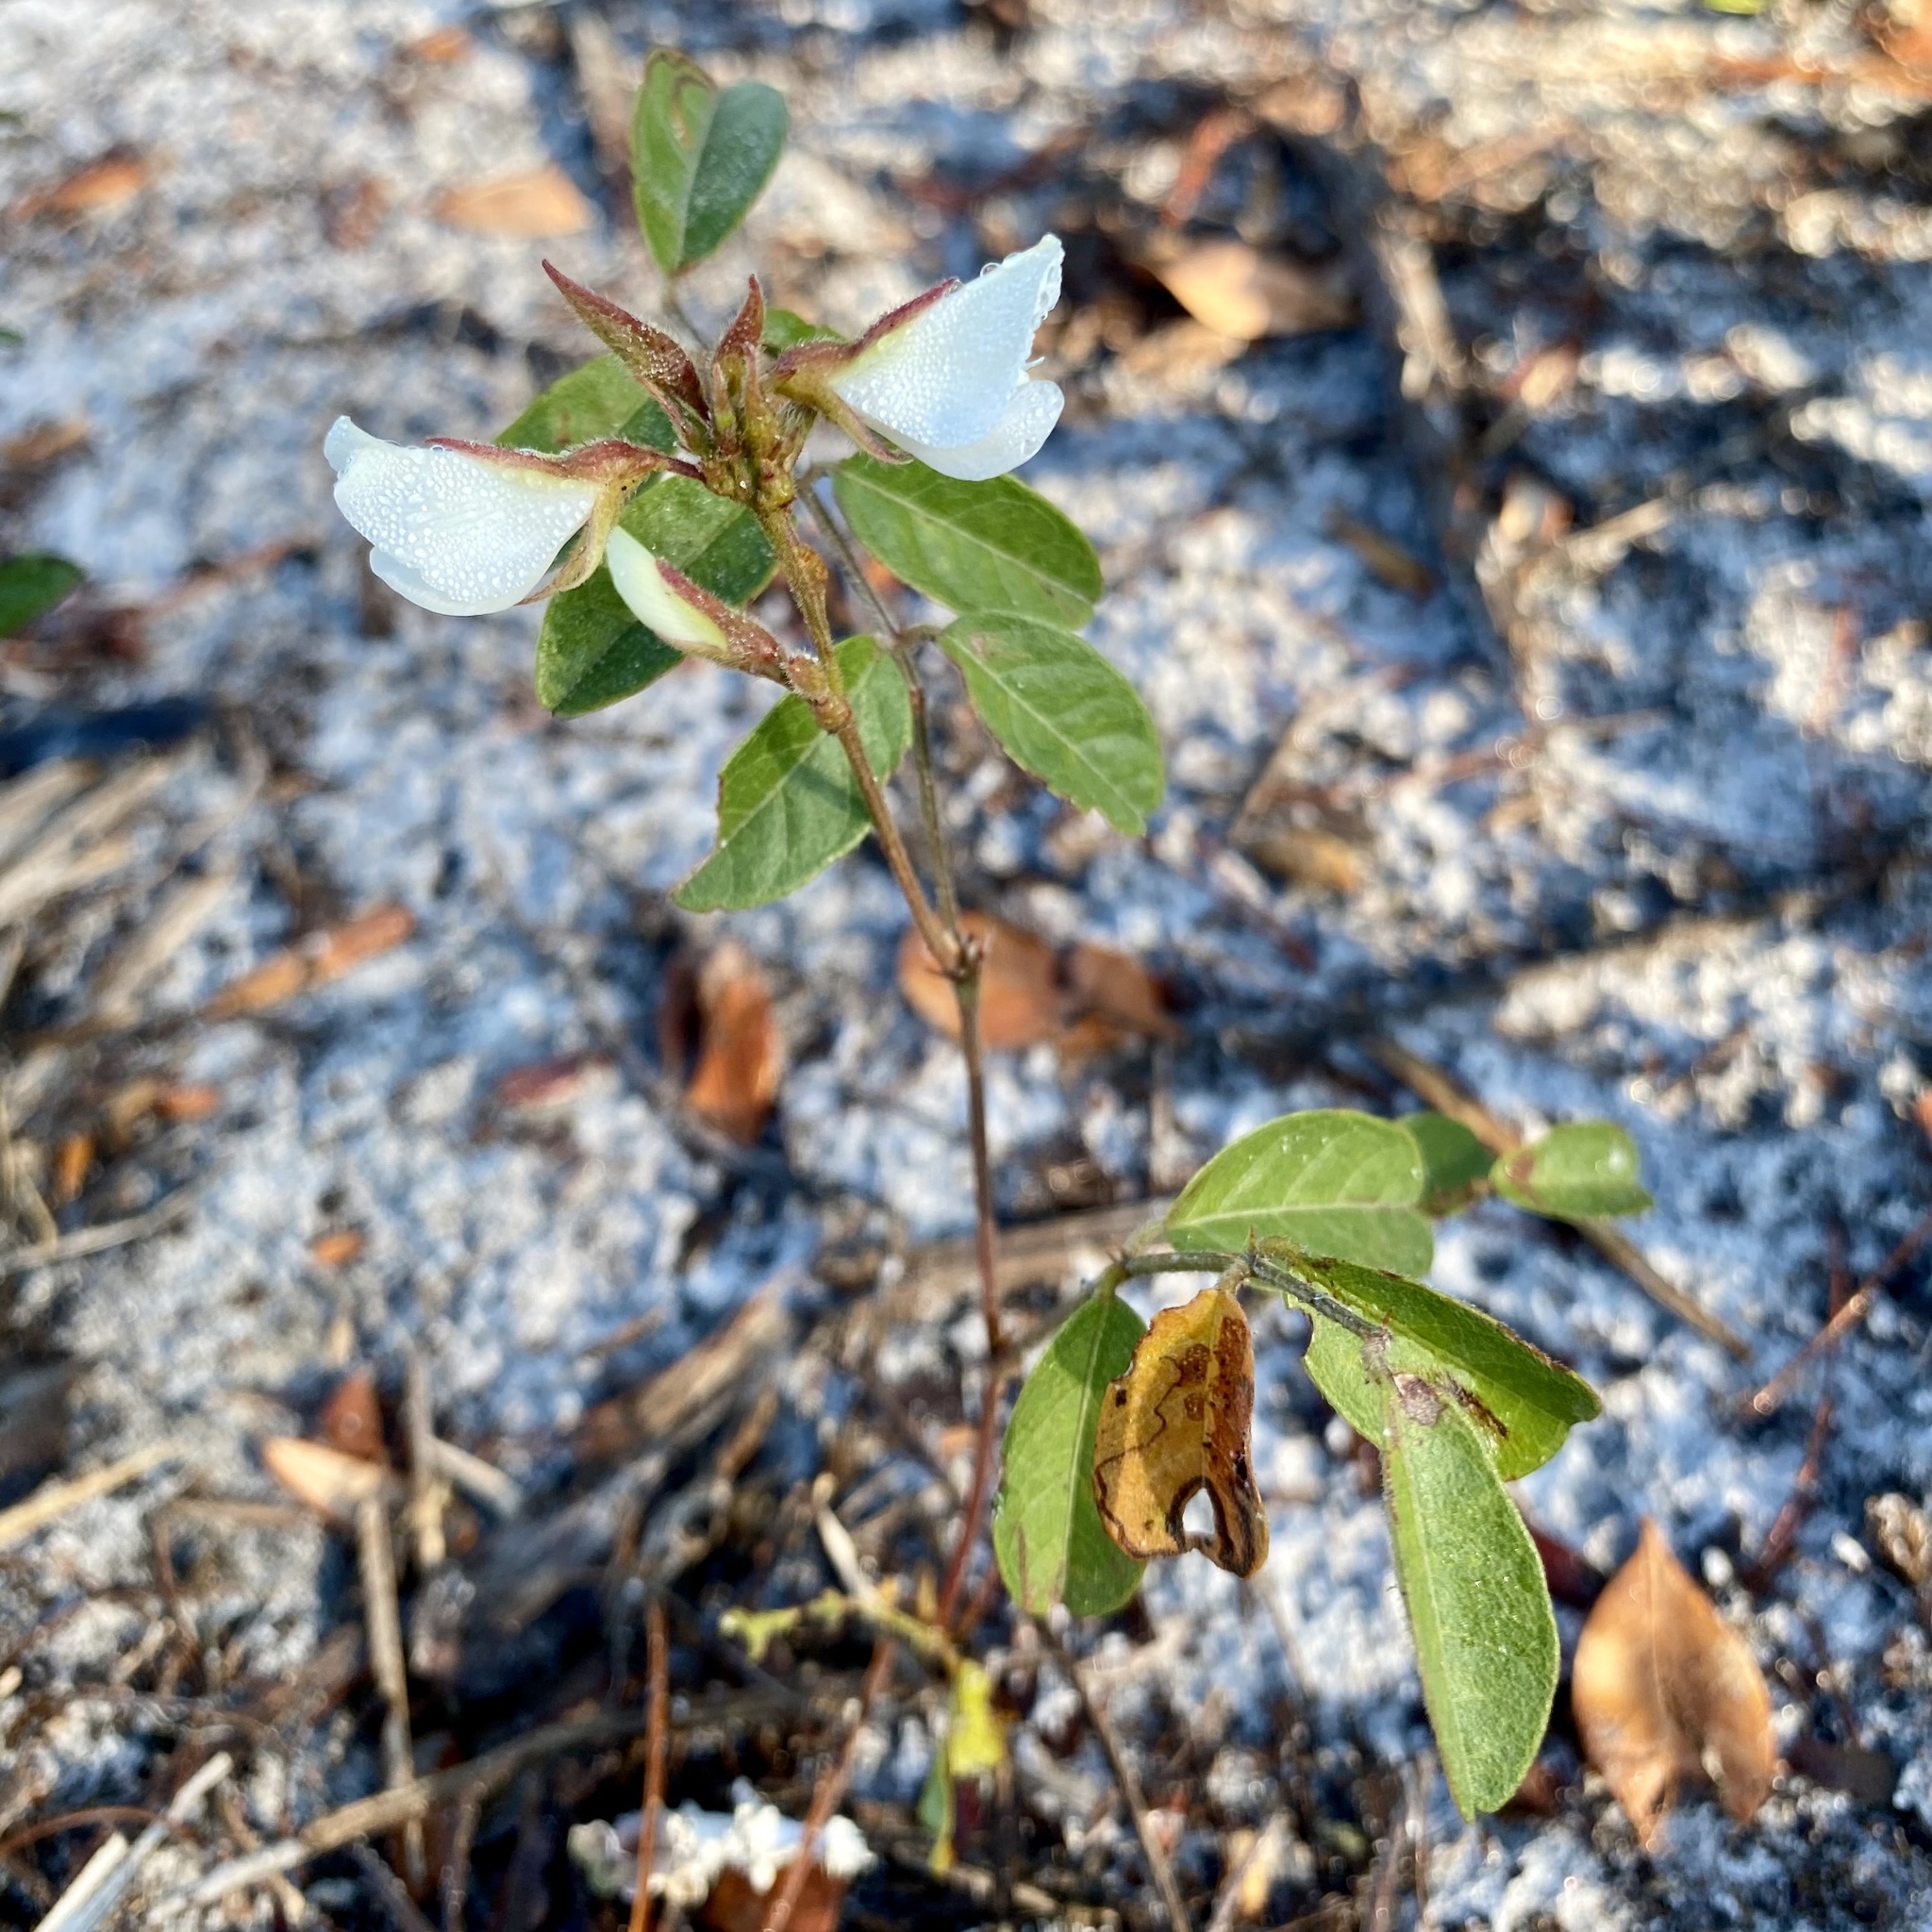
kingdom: Plantae
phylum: Tracheophyta
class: Magnoliopsida
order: Fabales
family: Fabaceae
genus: Galactia
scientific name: Galactia elliottii
